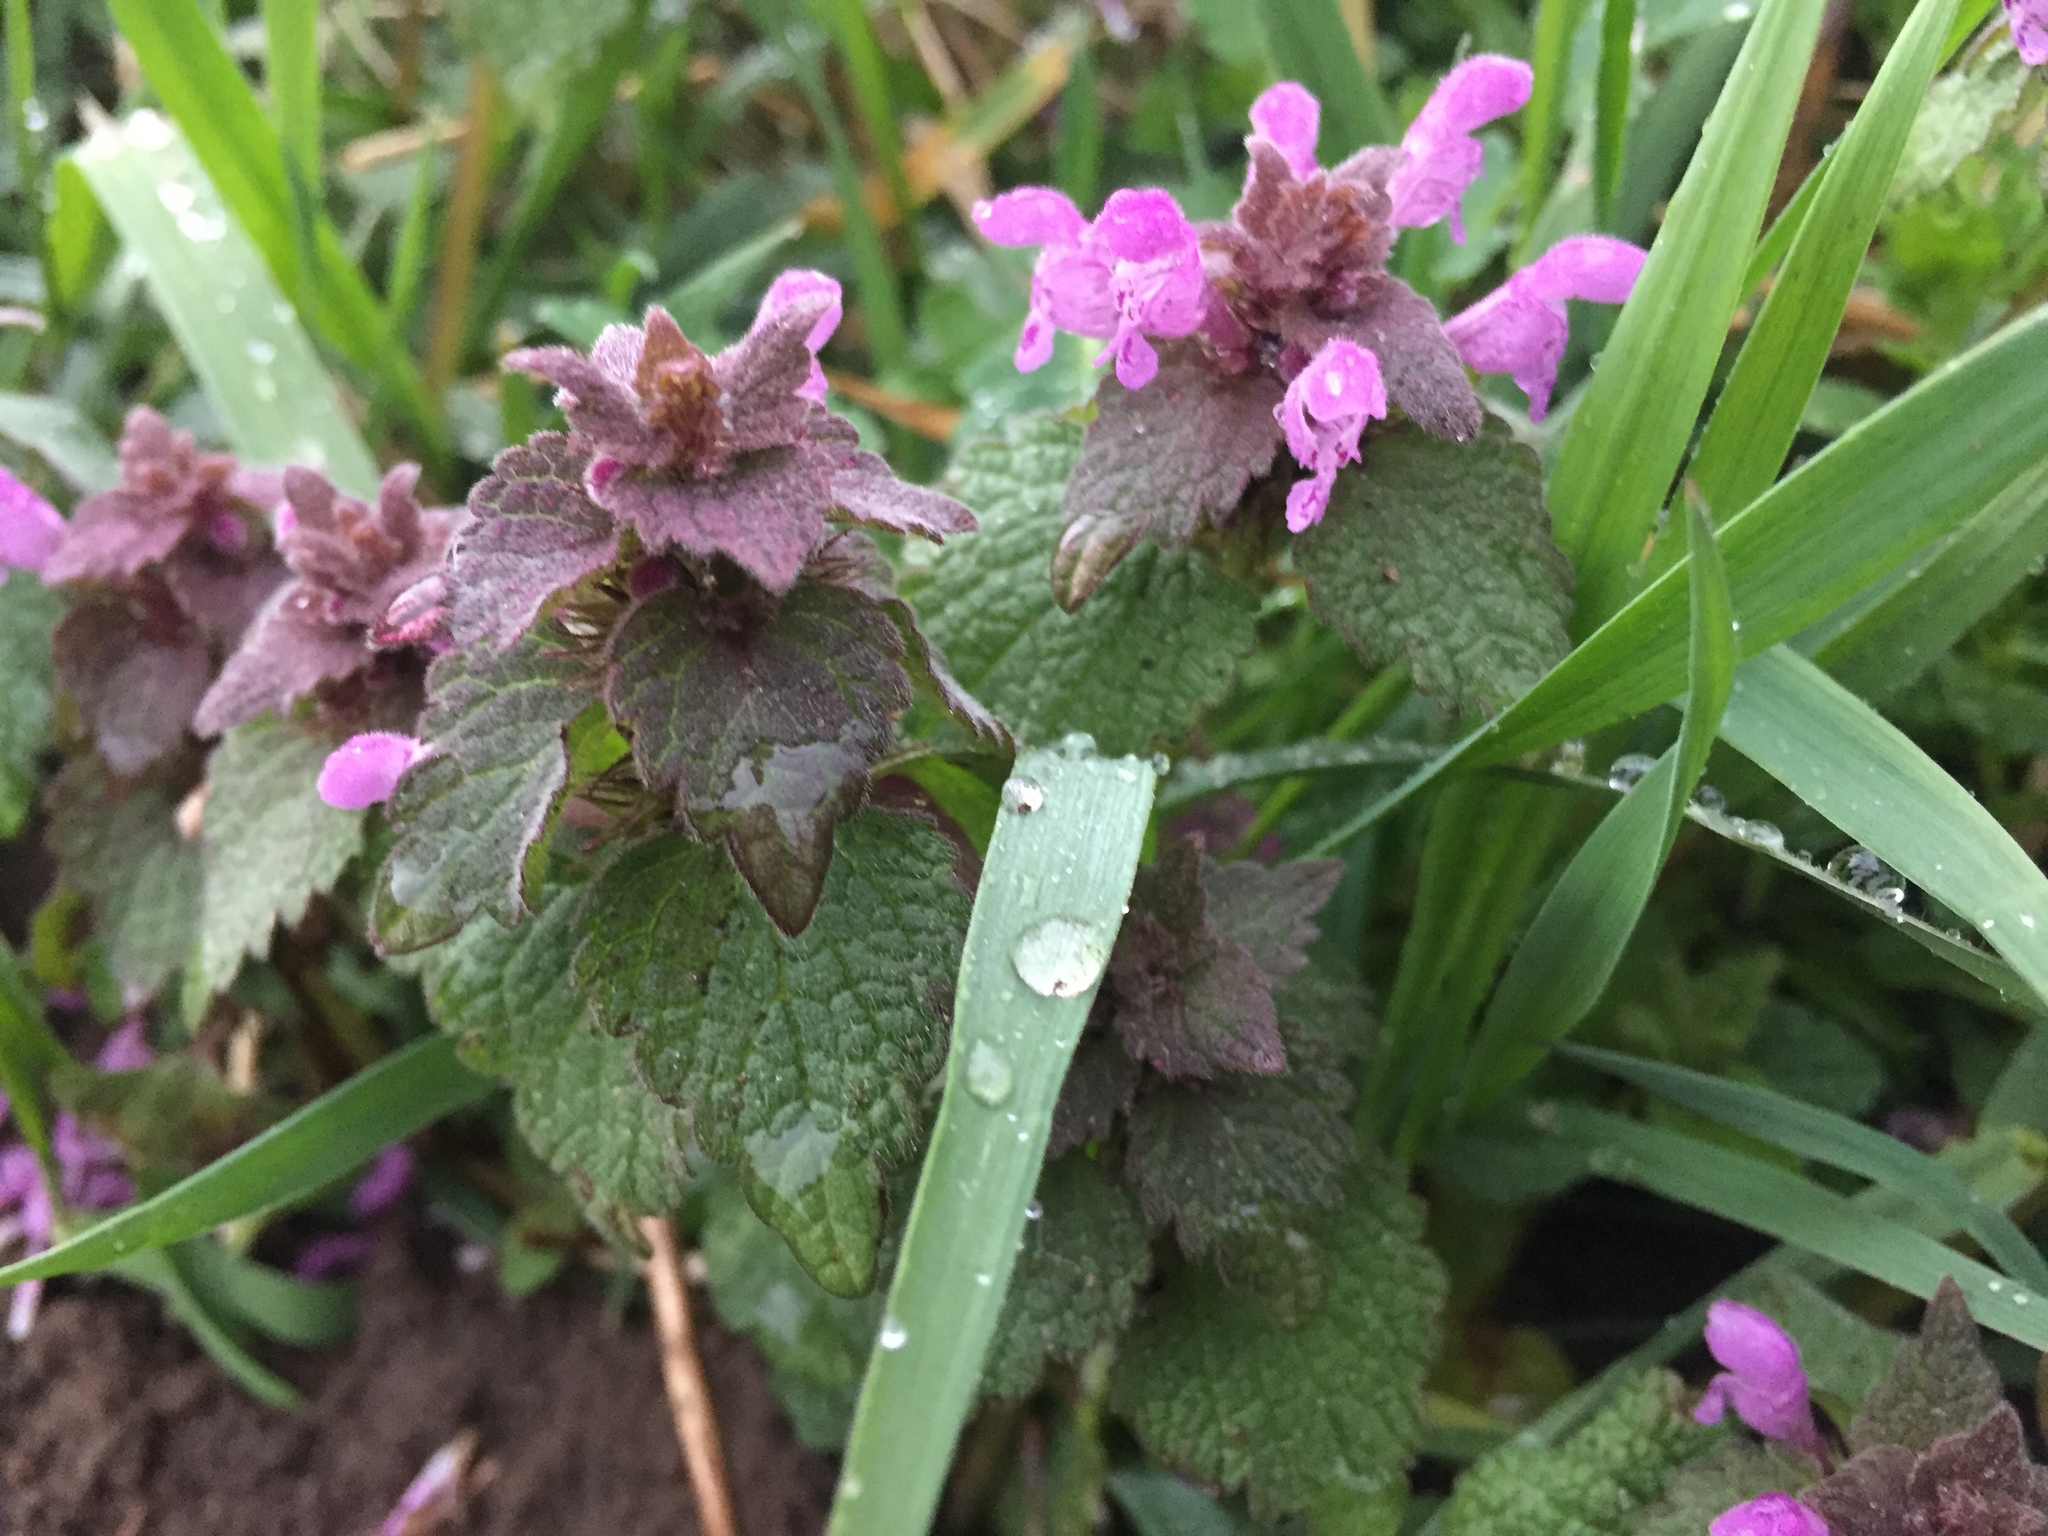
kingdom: Plantae
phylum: Tracheophyta
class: Magnoliopsida
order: Lamiales
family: Lamiaceae
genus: Lamium
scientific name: Lamium purpureum
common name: Red dead-nettle
